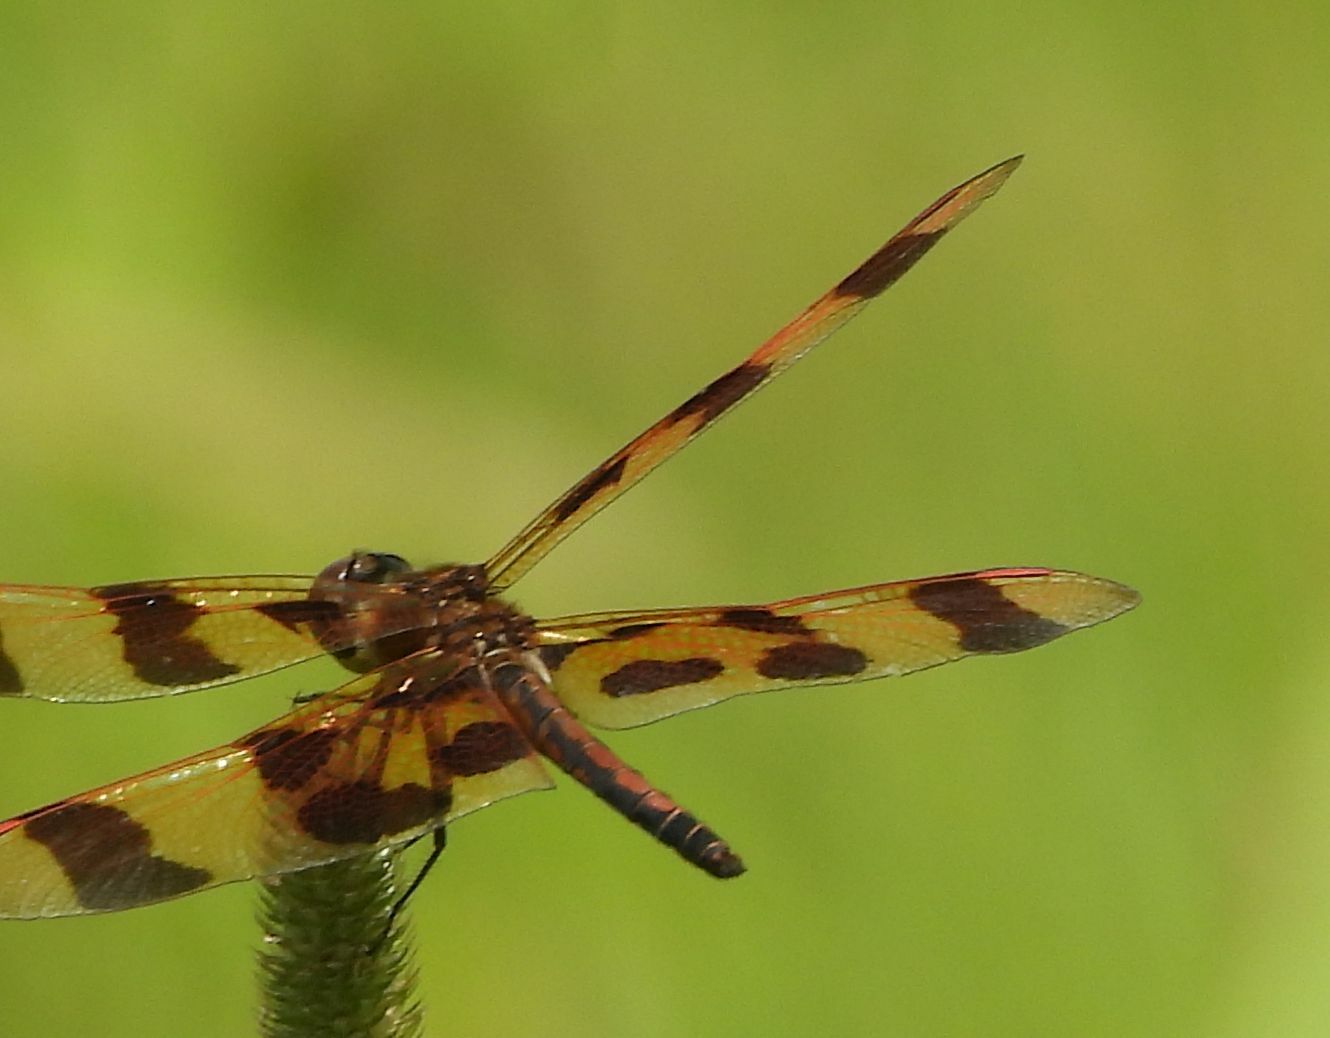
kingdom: Animalia
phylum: Arthropoda
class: Insecta
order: Odonata
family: Libellulidae
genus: Celithemis
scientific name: Celithemis eponina
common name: Halloween pennant
